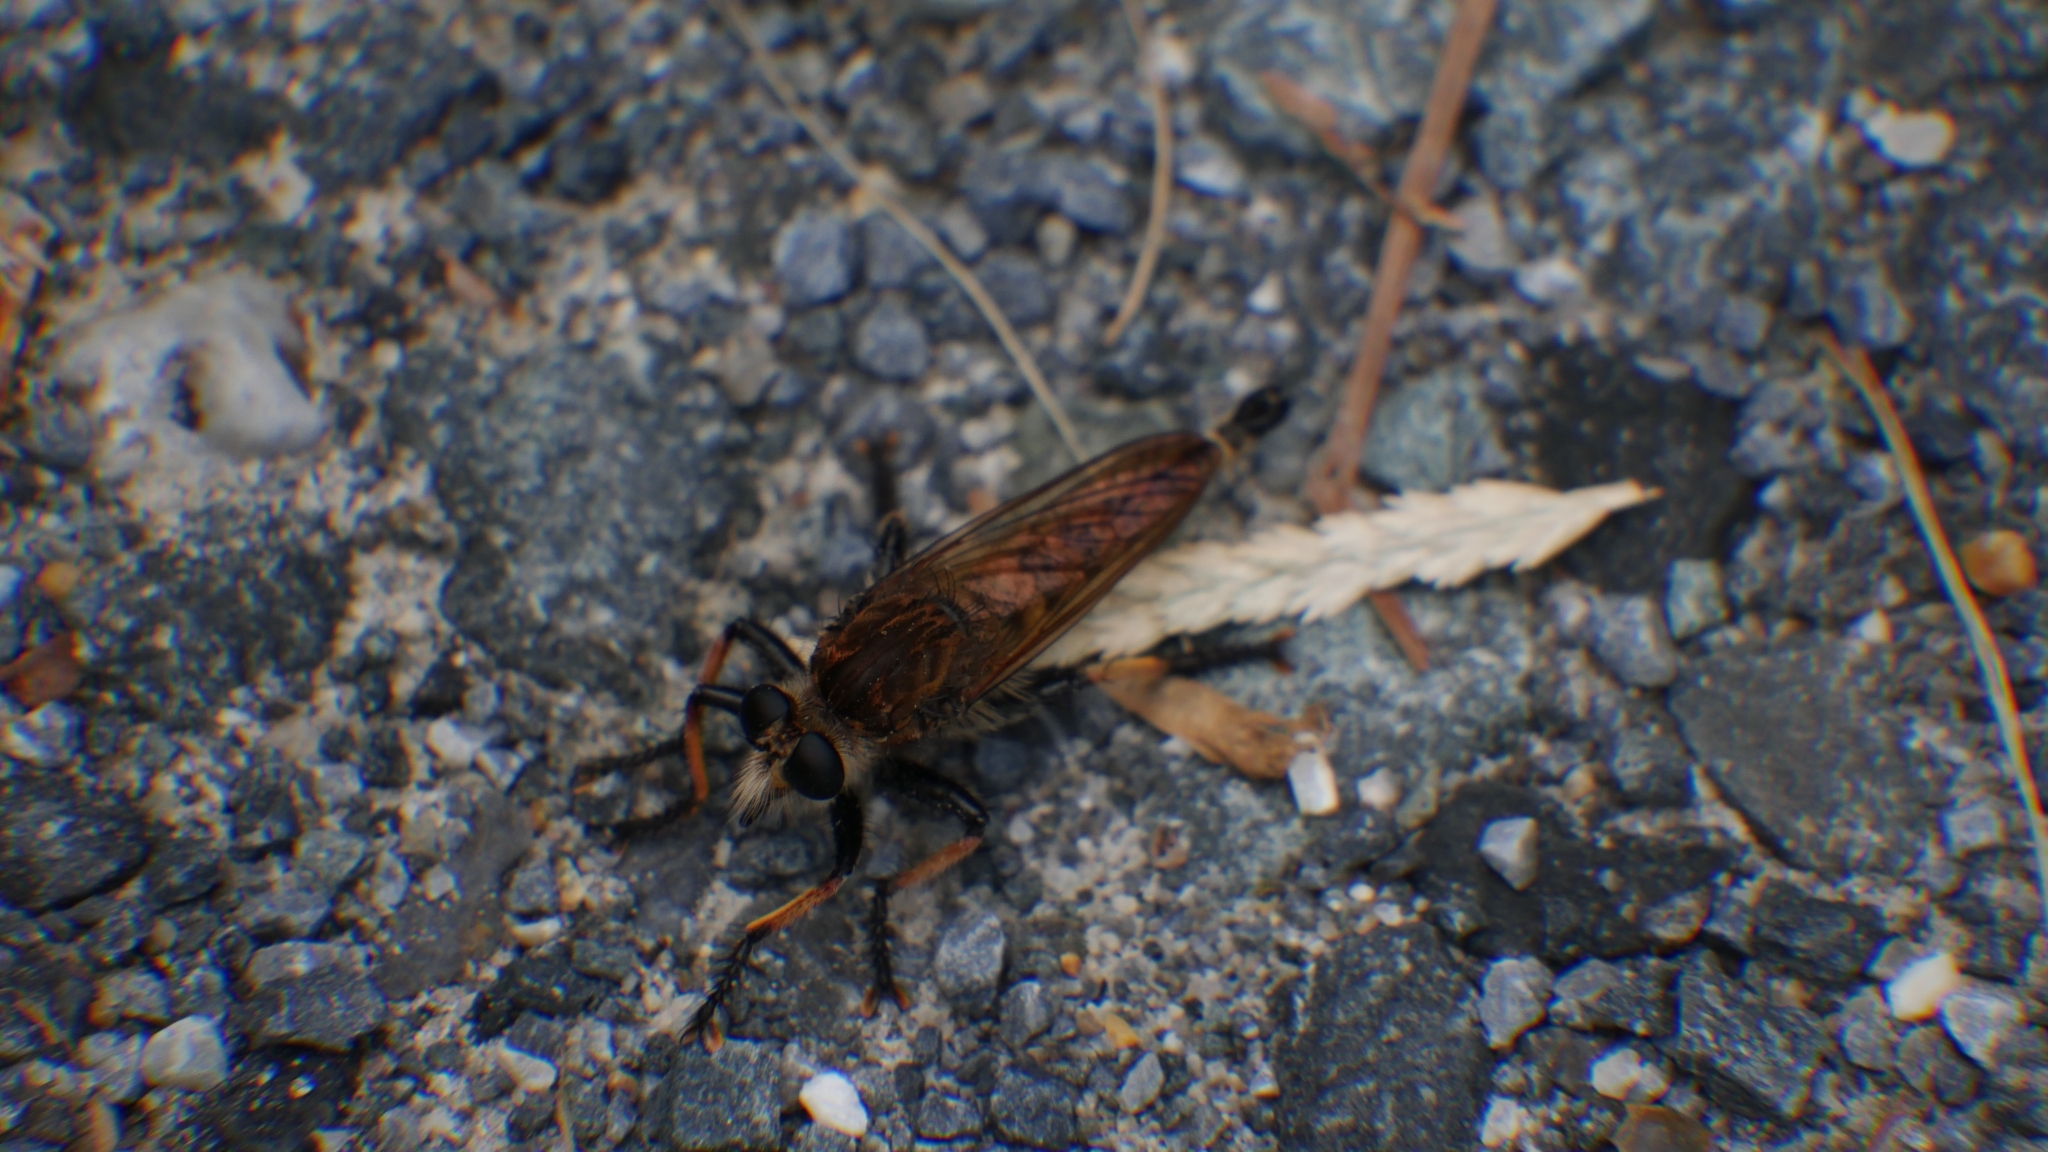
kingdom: Animalia
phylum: Arthropoda
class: Insecta
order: Diptera
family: Asilidae
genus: Promachus
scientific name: Promachus rufipes
